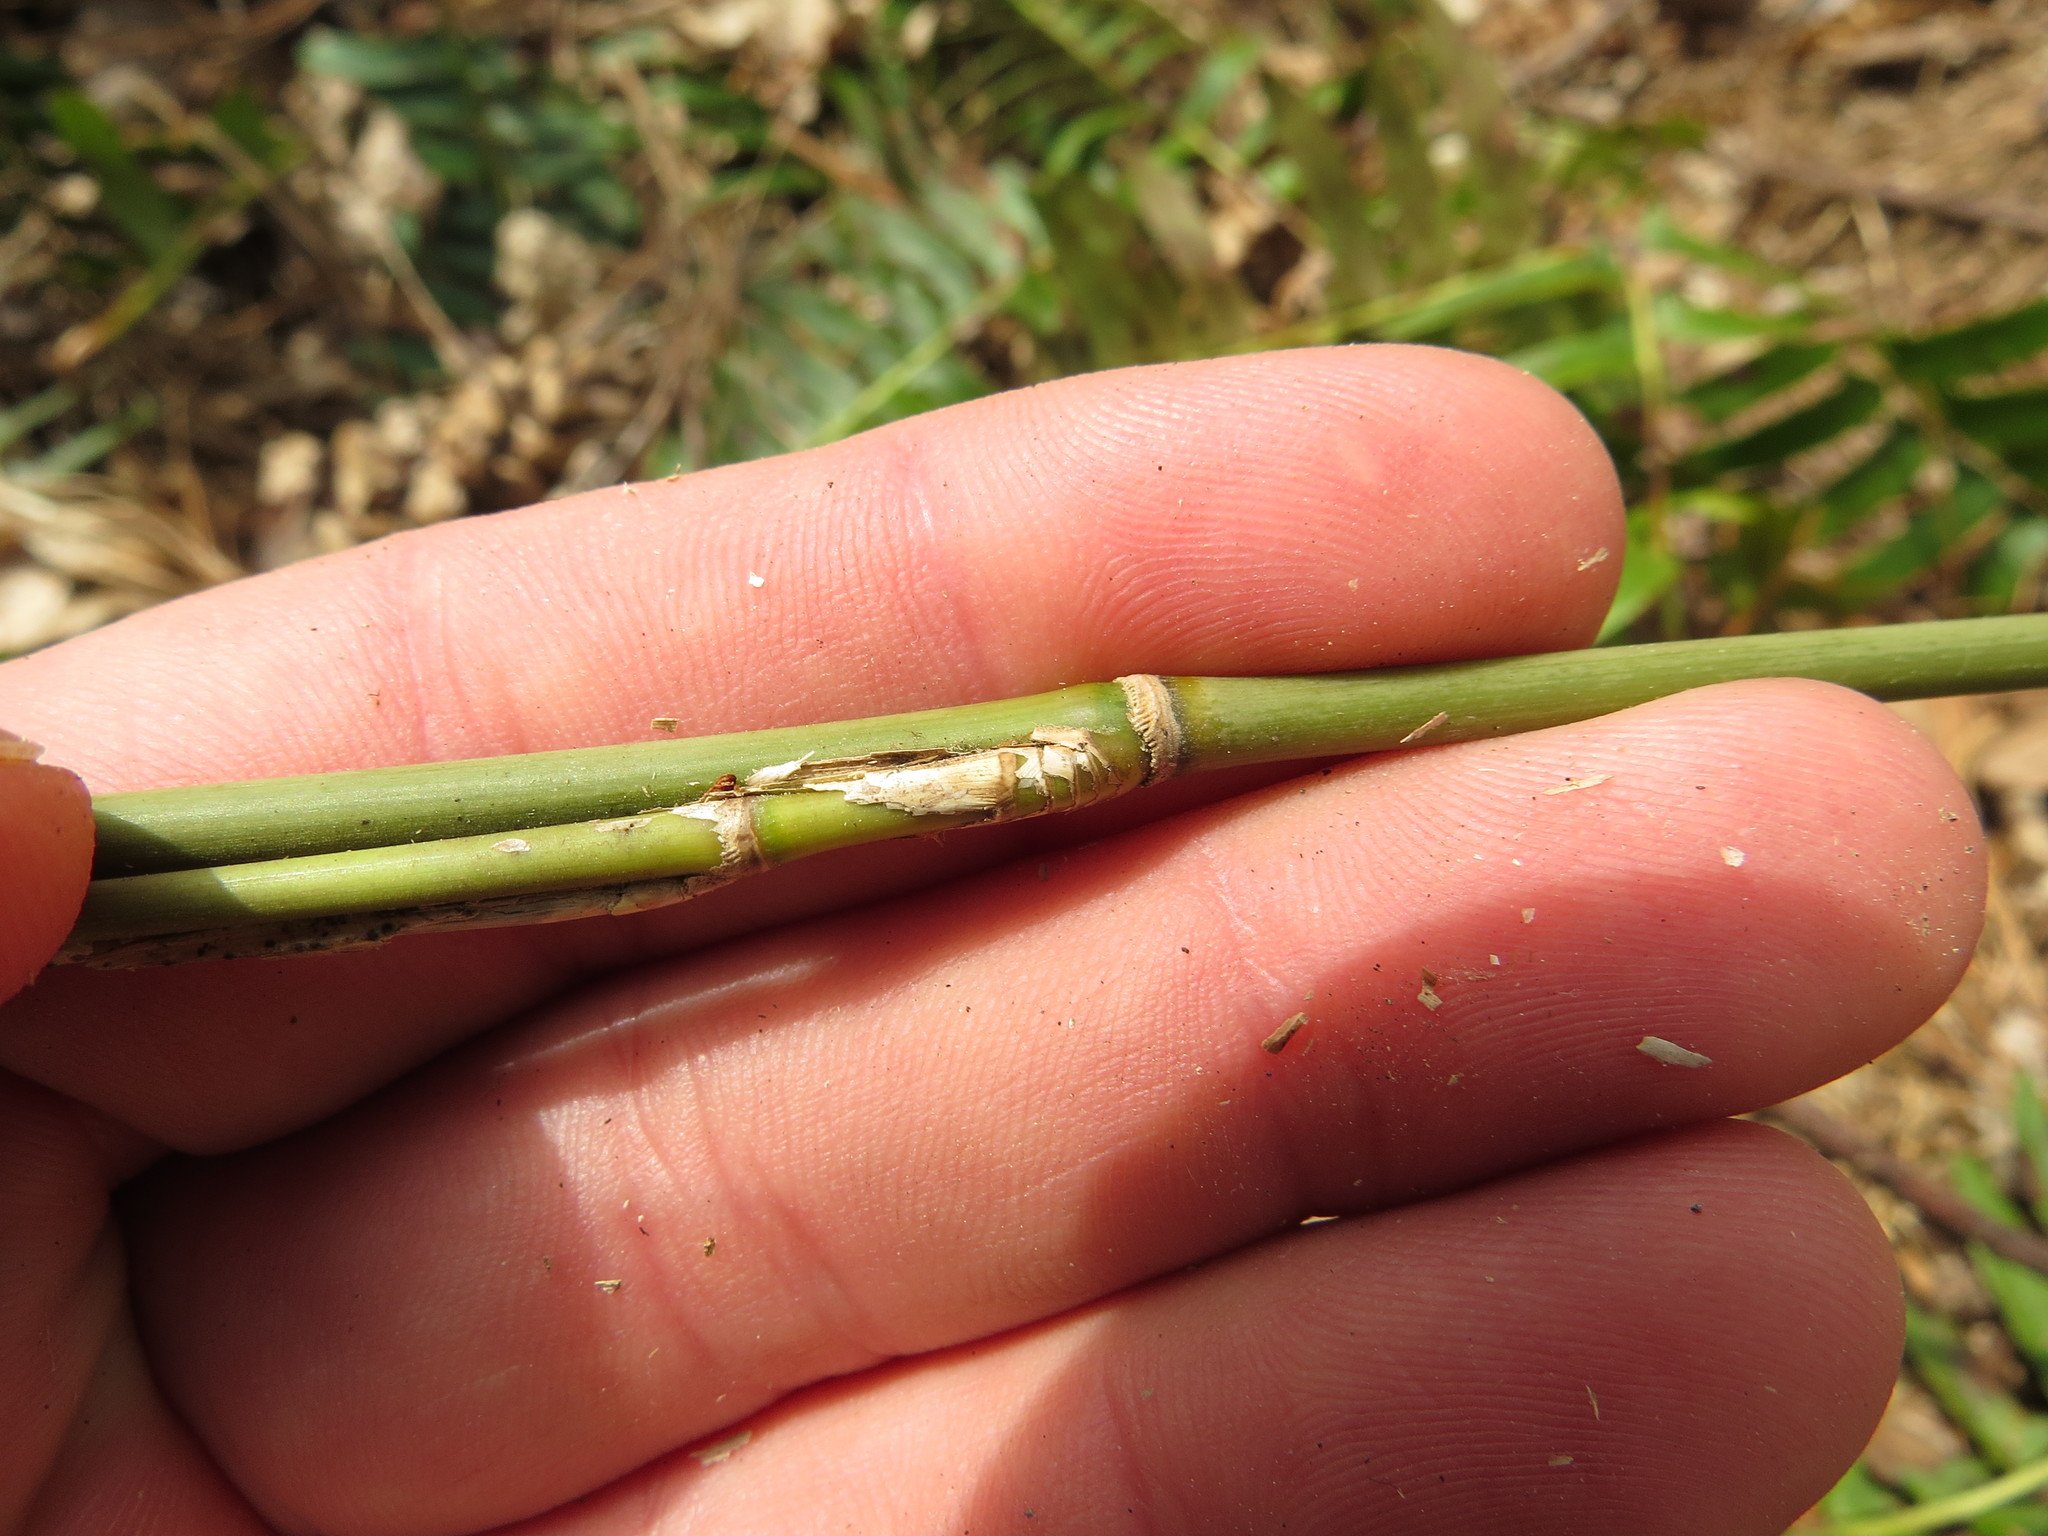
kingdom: Plantae
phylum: Tracheophyta
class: Liliopsida
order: Poales
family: Poaceae
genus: Arundinaria
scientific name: Arundinaria appalachiana
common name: Hill cane
